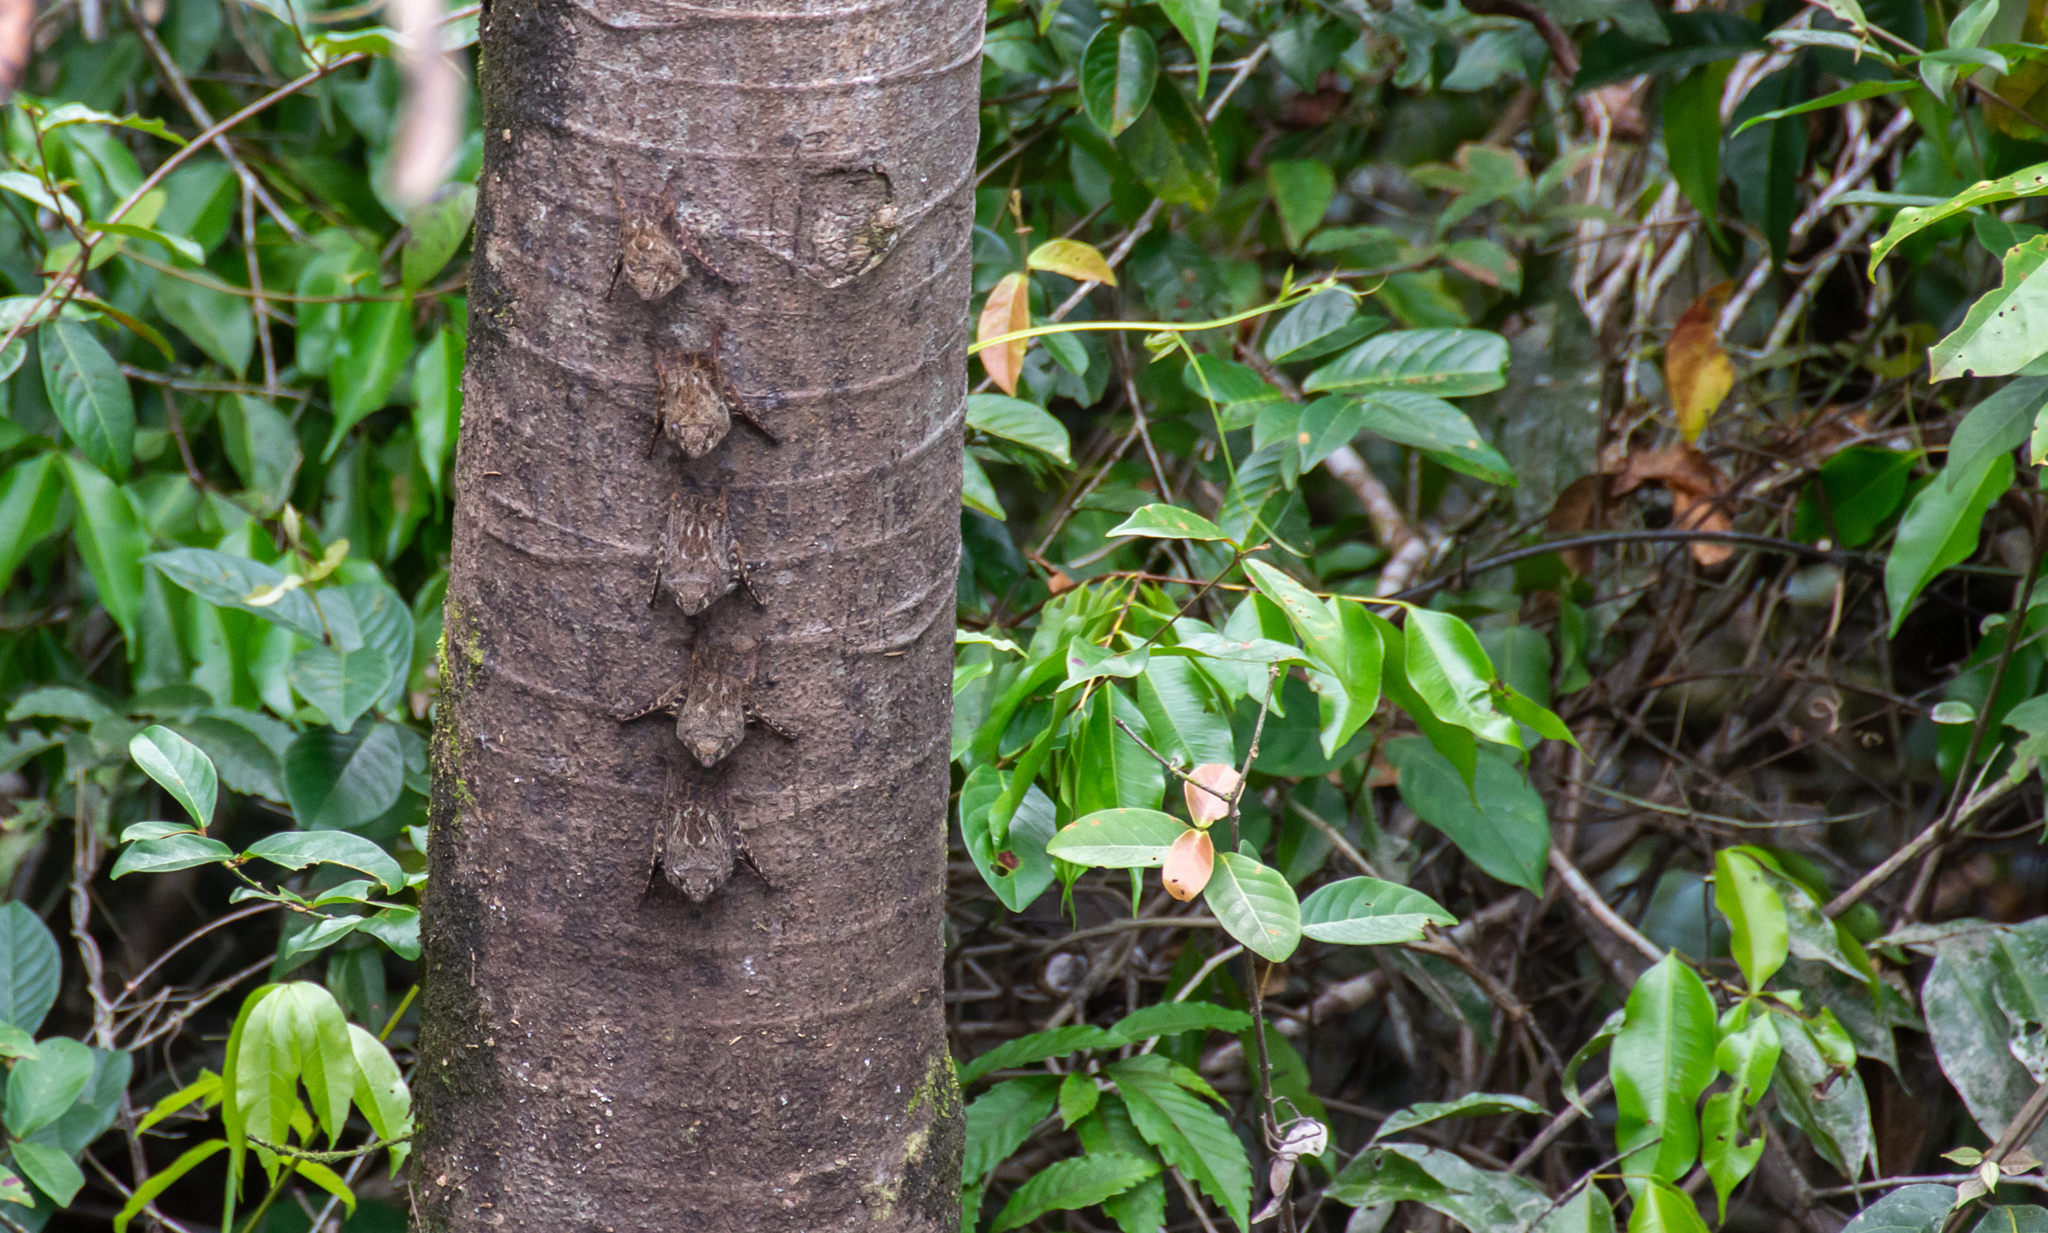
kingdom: Animalia
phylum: Chordata
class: Mammalia
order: Chiroptera
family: Emballonuridae
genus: Rhynchonycteris
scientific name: Rhynchonycteris naso
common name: Proboscis bat
